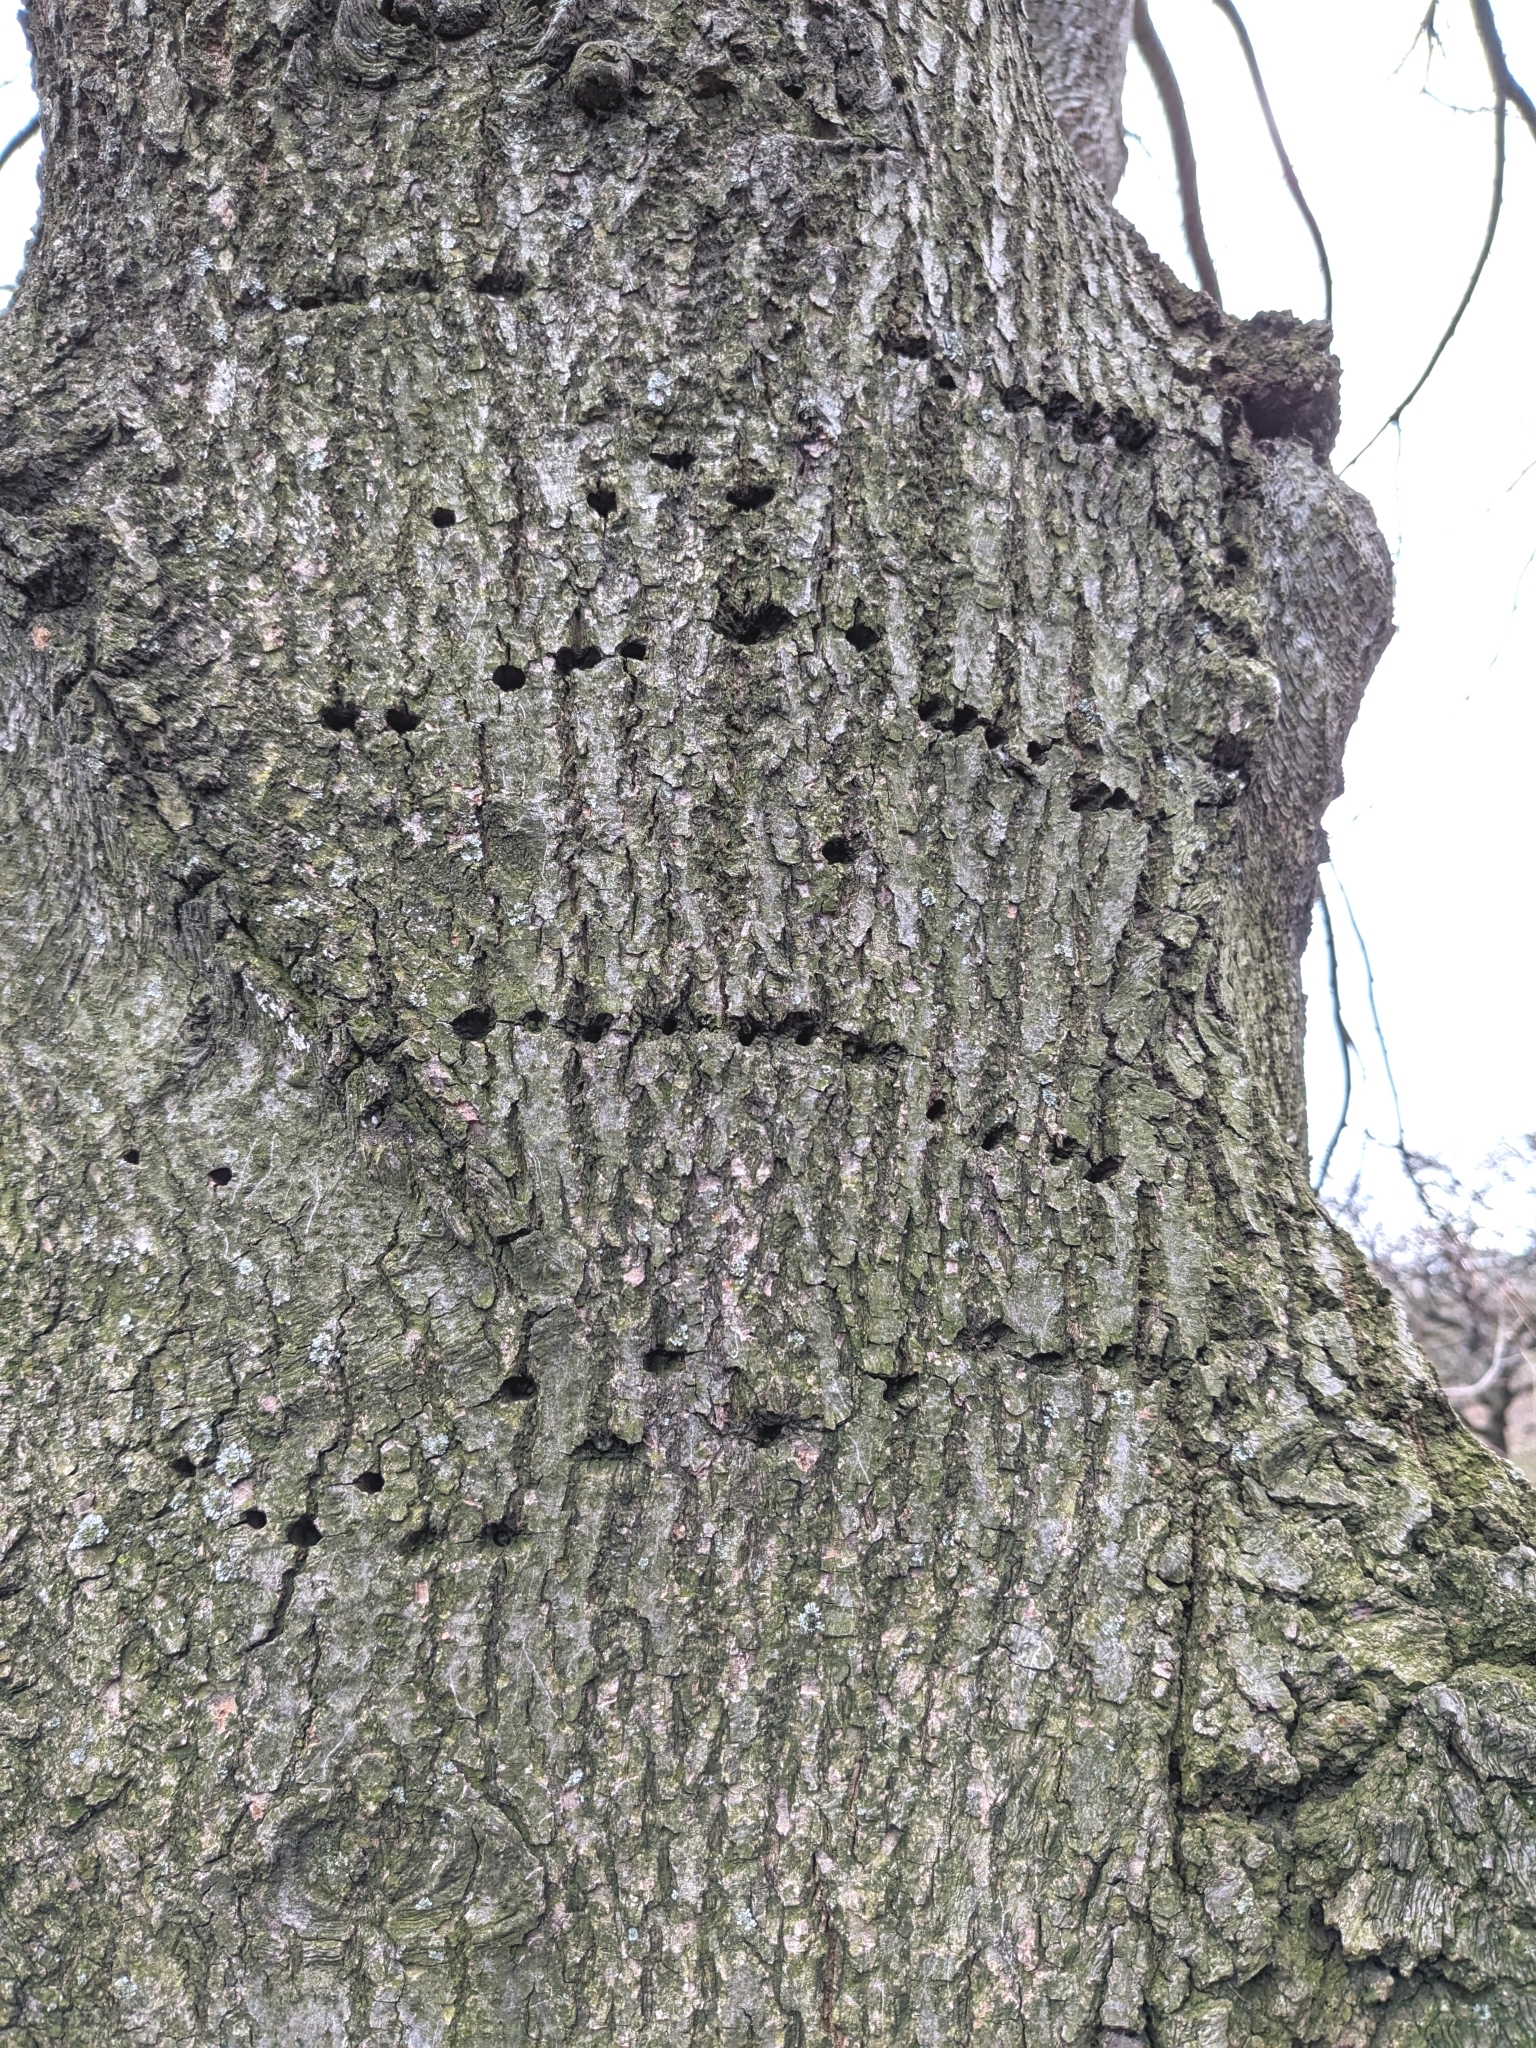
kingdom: Animalia
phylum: Chordata
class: Aves
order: Piciformes
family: Picidae
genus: Sphyrapicus
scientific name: Sphyrapicus varius
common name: Yellow-bellied sapsucker
